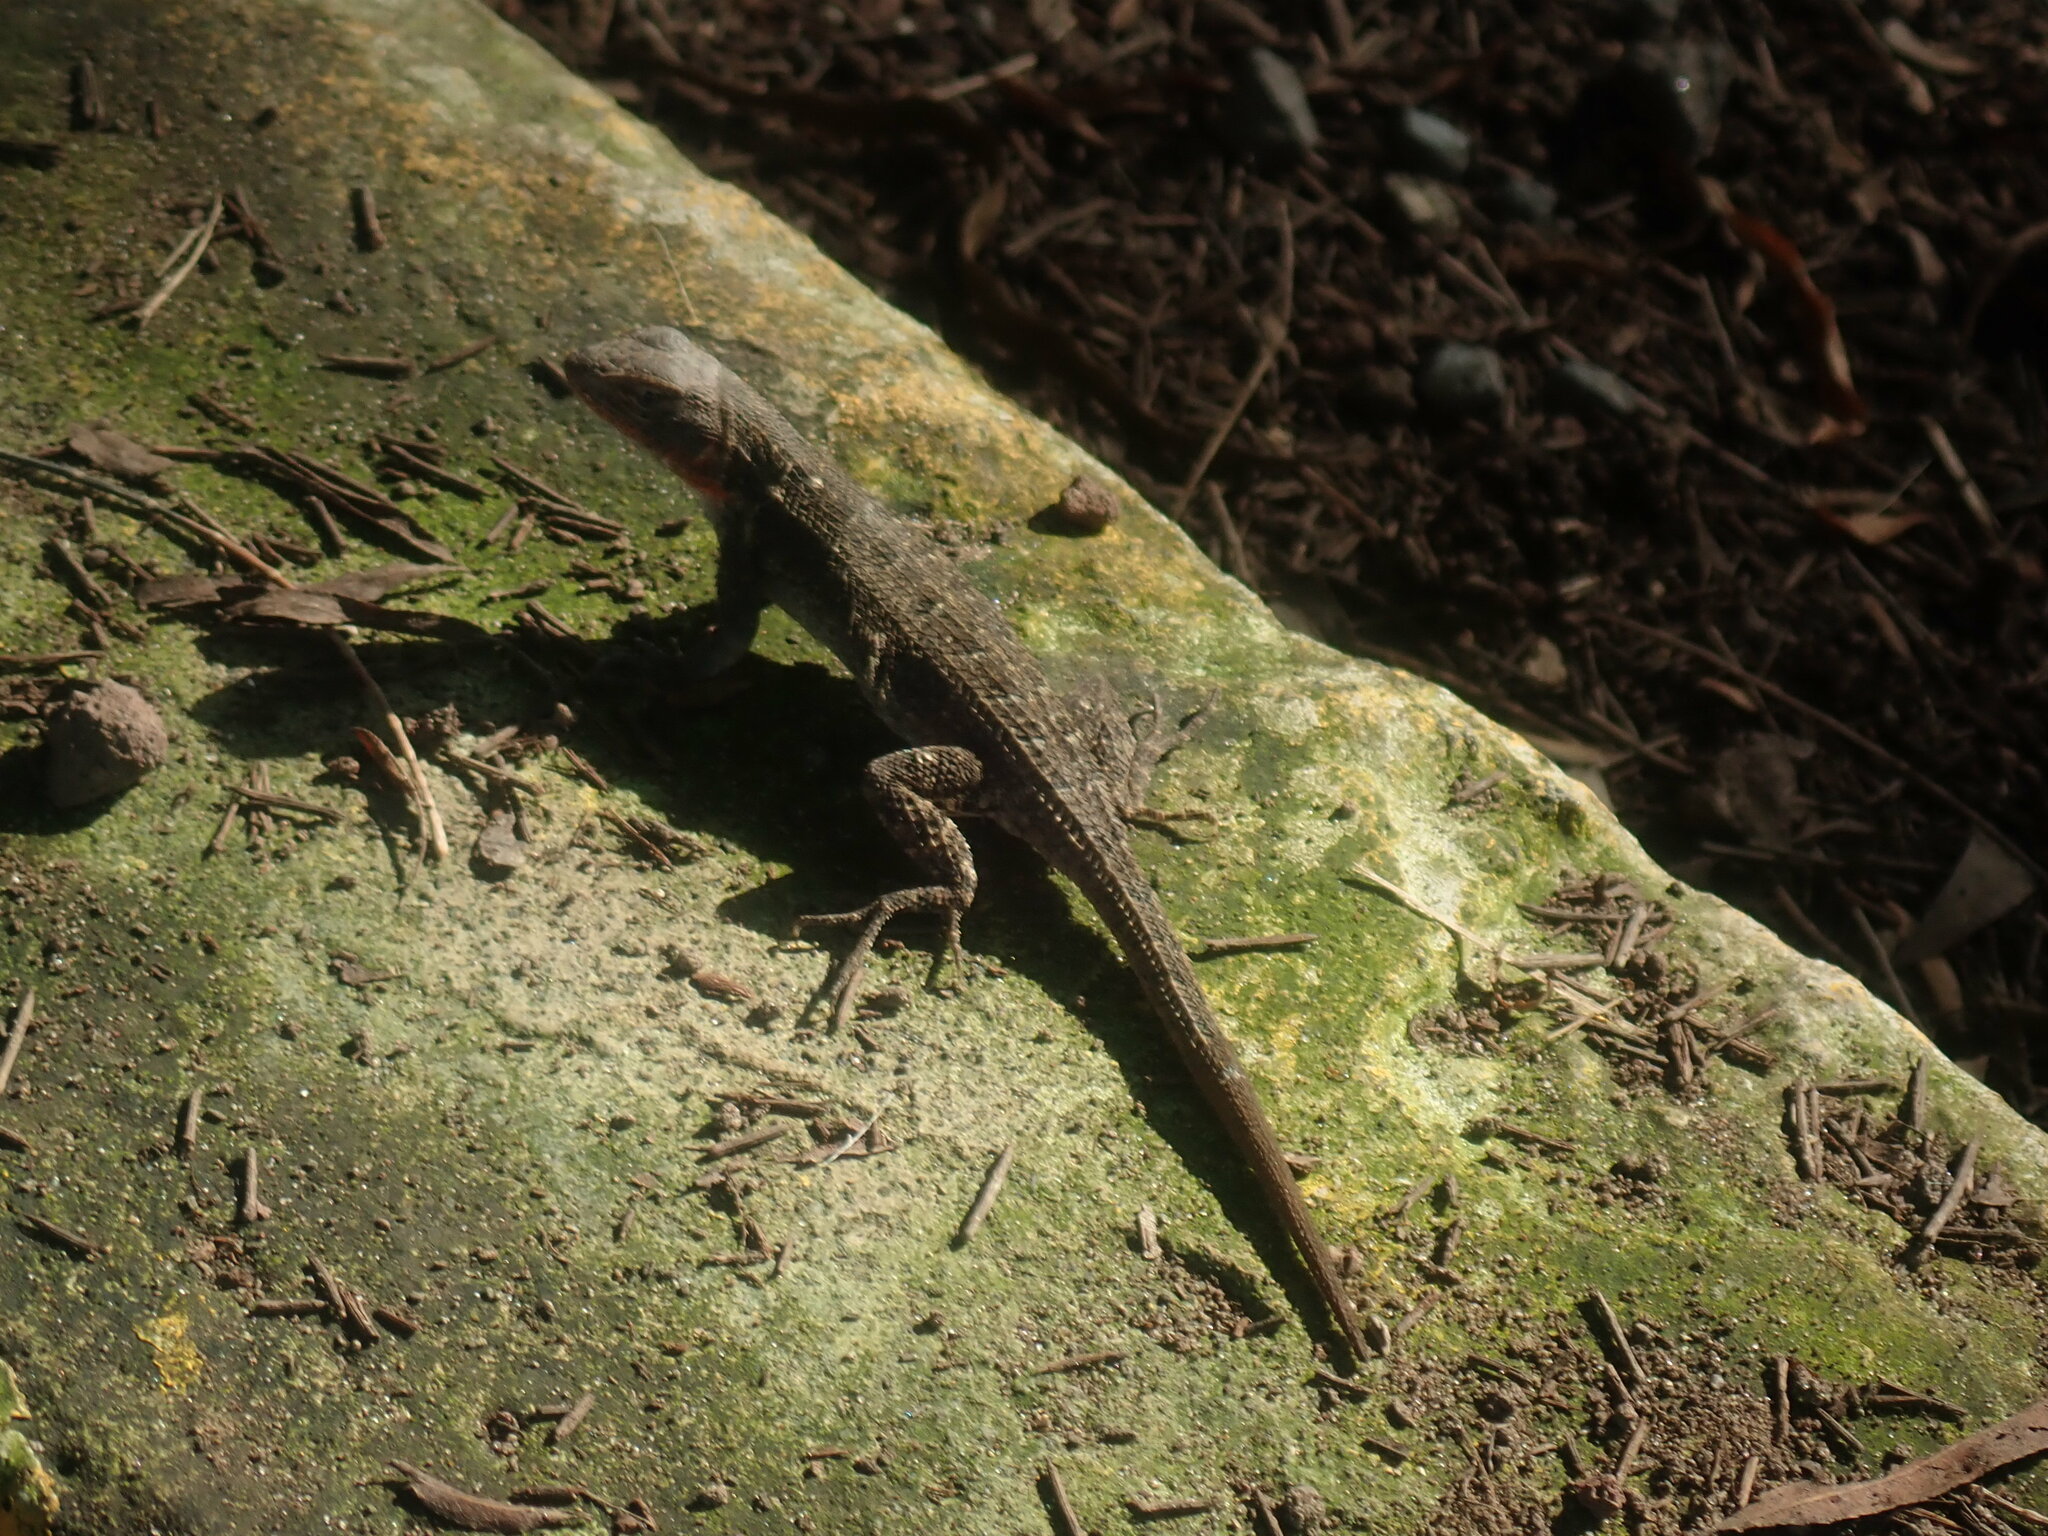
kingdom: Animalia
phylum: Chordata
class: Squamata
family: Phrynosomatidae
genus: Sceloporus
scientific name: Sceloporus variabilis
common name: Rosebelly lizard
